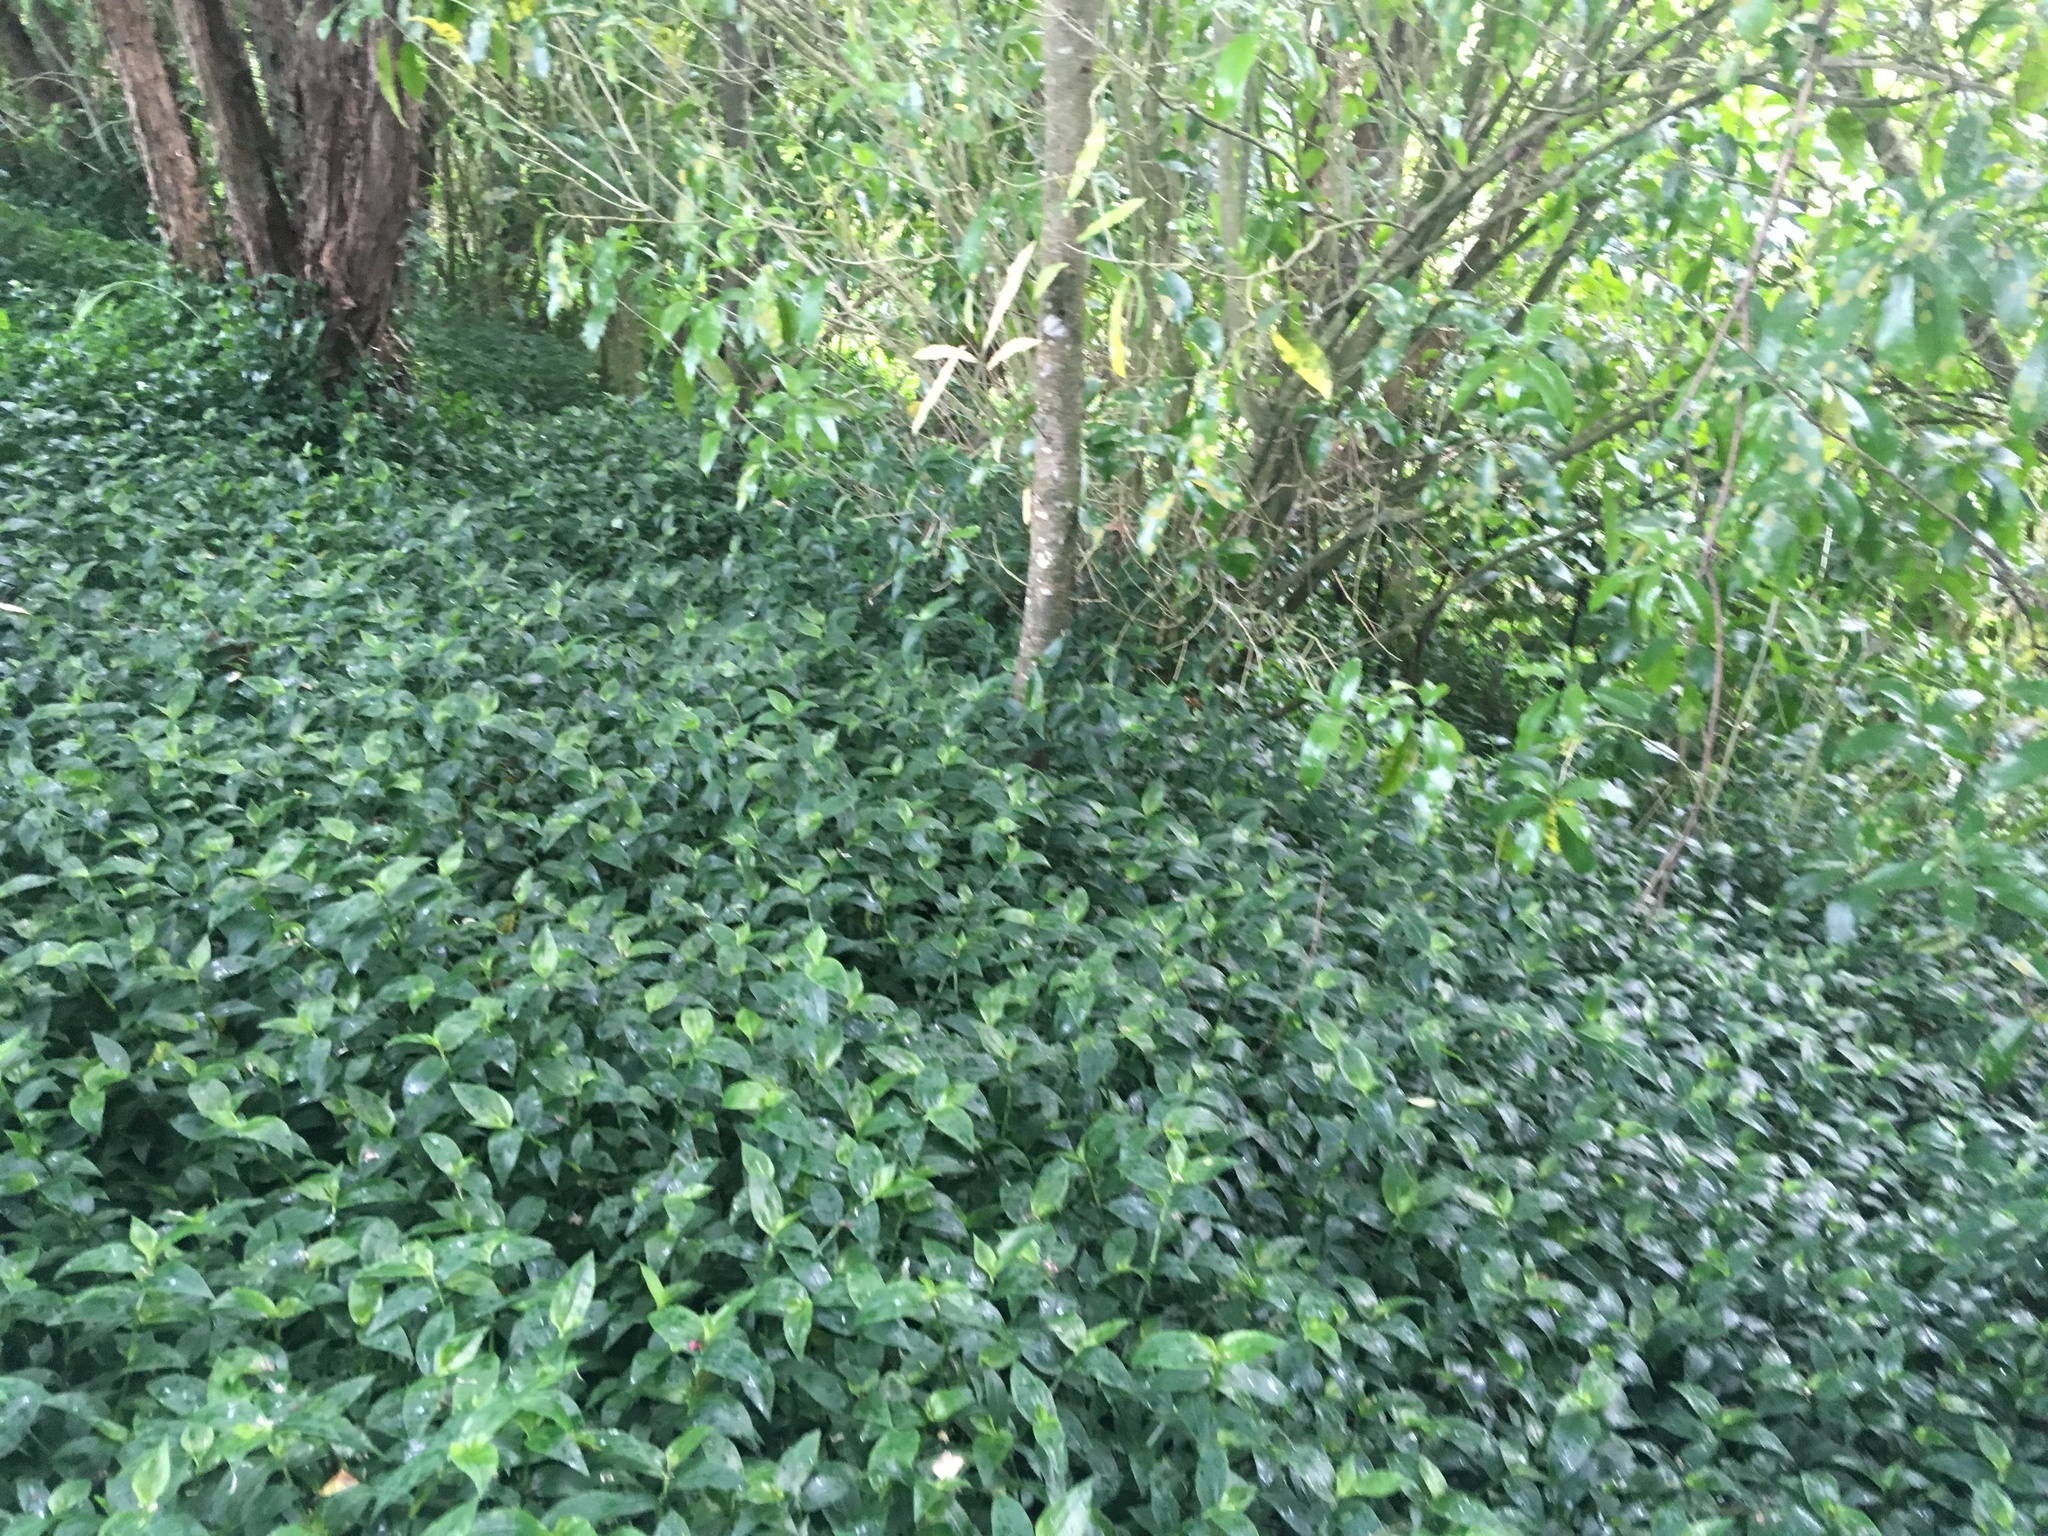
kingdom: Plantae
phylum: Tracheophyta
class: Liliopsida
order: Commelinales
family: Commelinaceae
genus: Tradescantia
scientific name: Tradescantia fluminensis
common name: Wandering-jew
